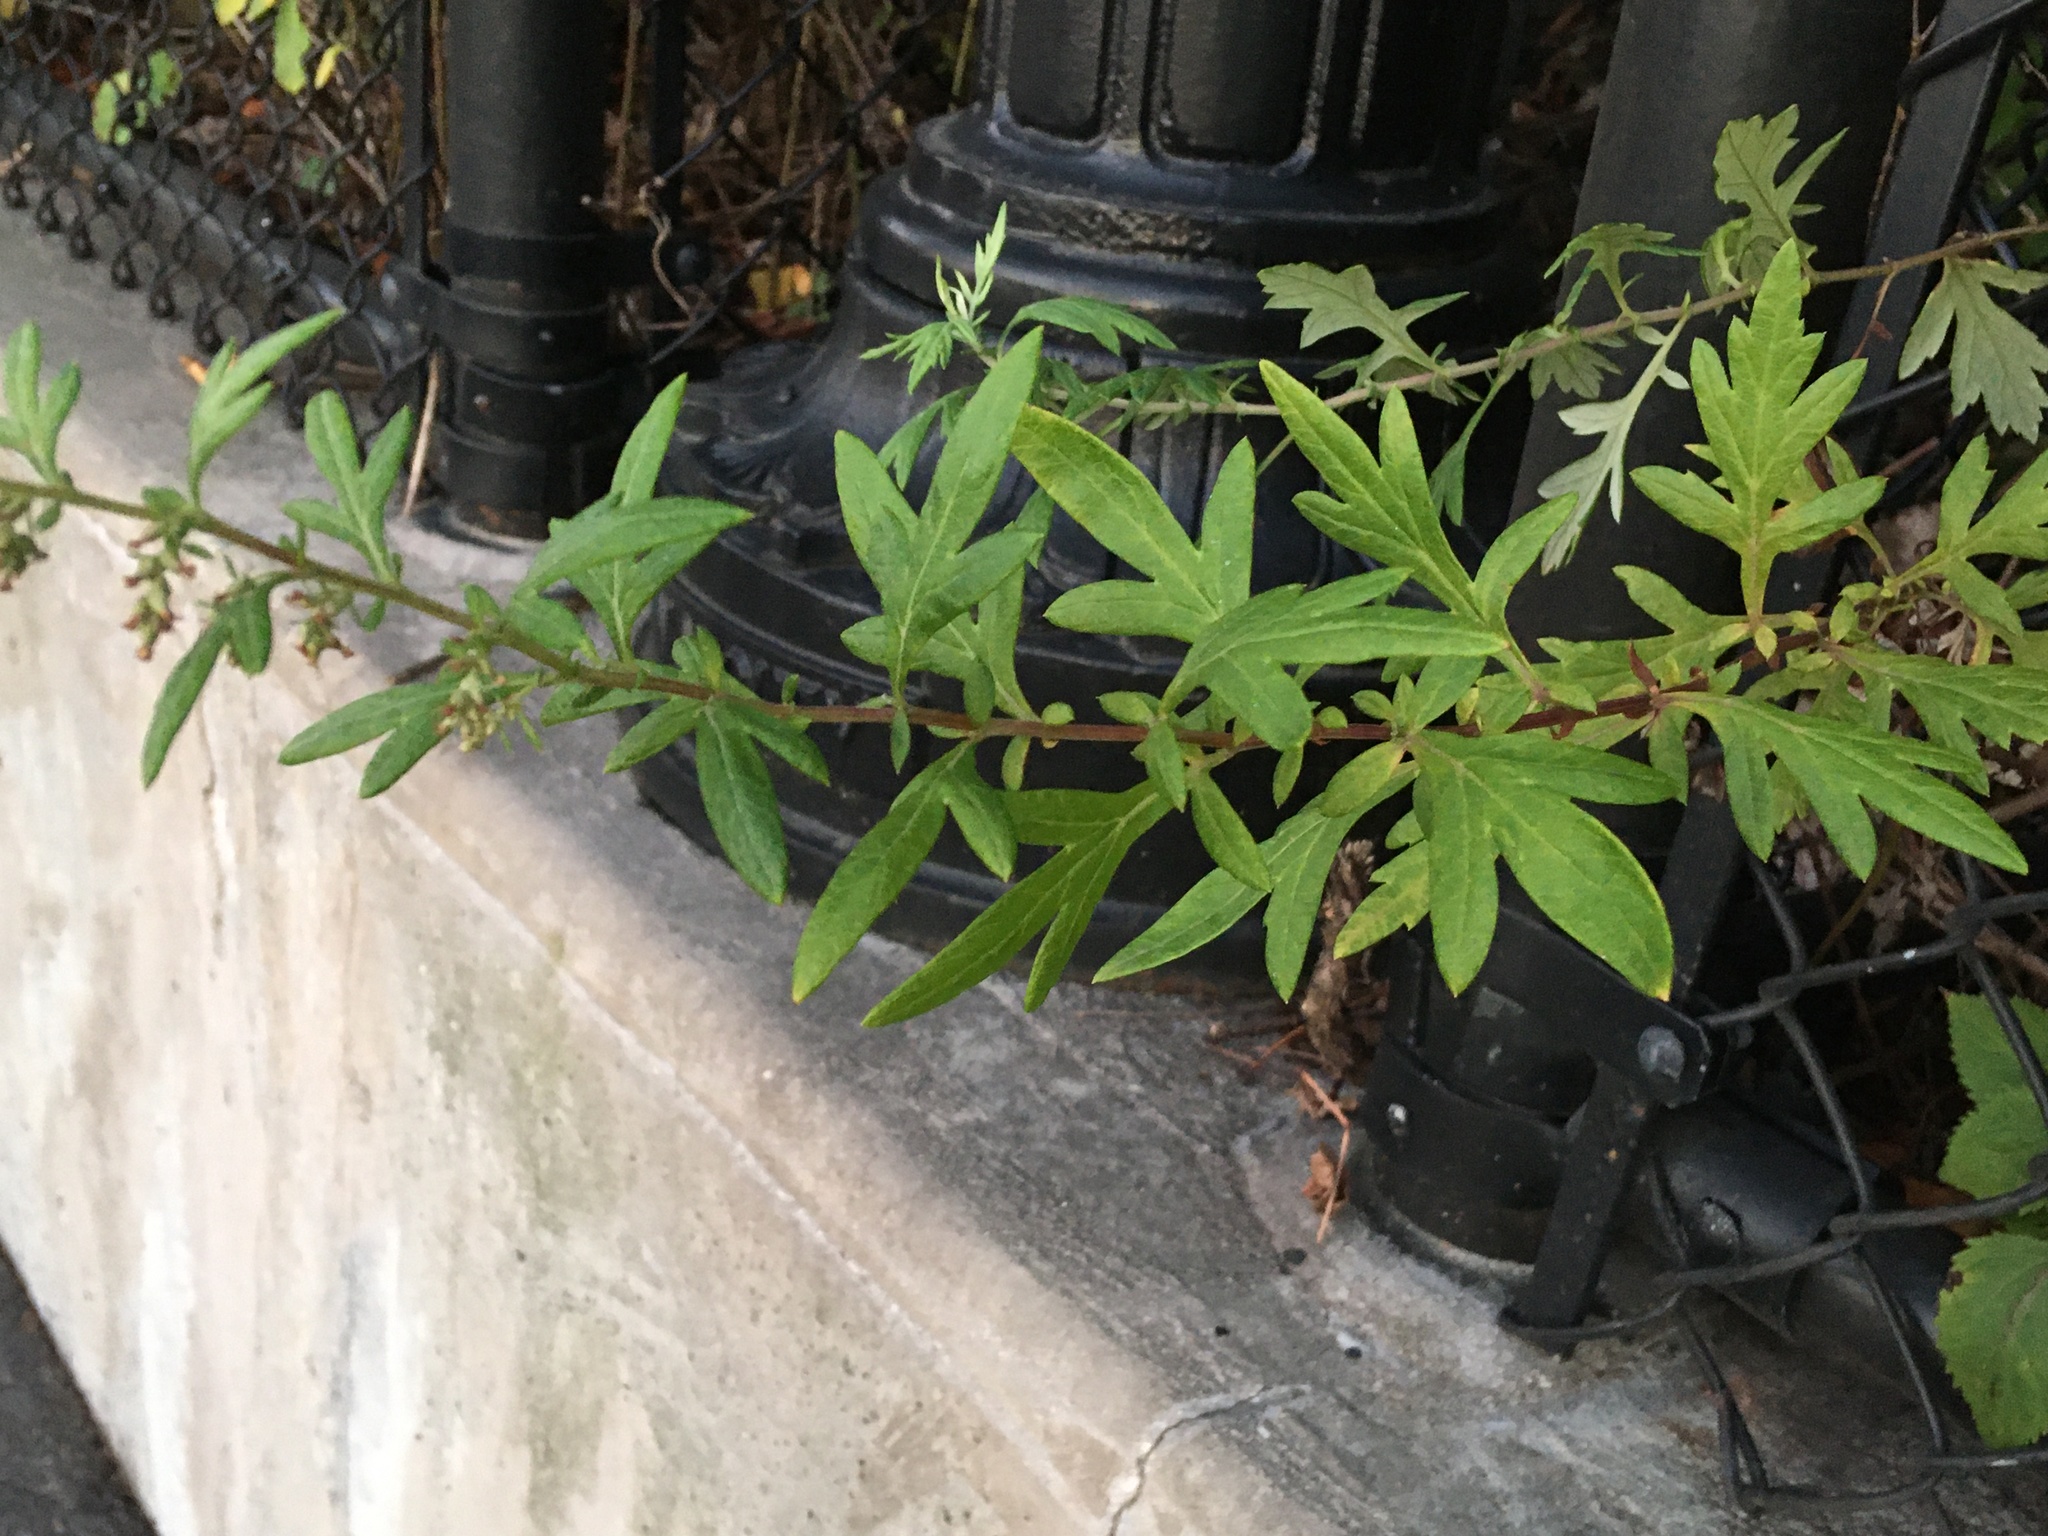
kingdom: Plantae
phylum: Tracheophyta
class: Magnoliopsida
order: Asterales
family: Asteraceae
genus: Artemisia
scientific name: Artemisia vulgaris
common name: Mugwort
